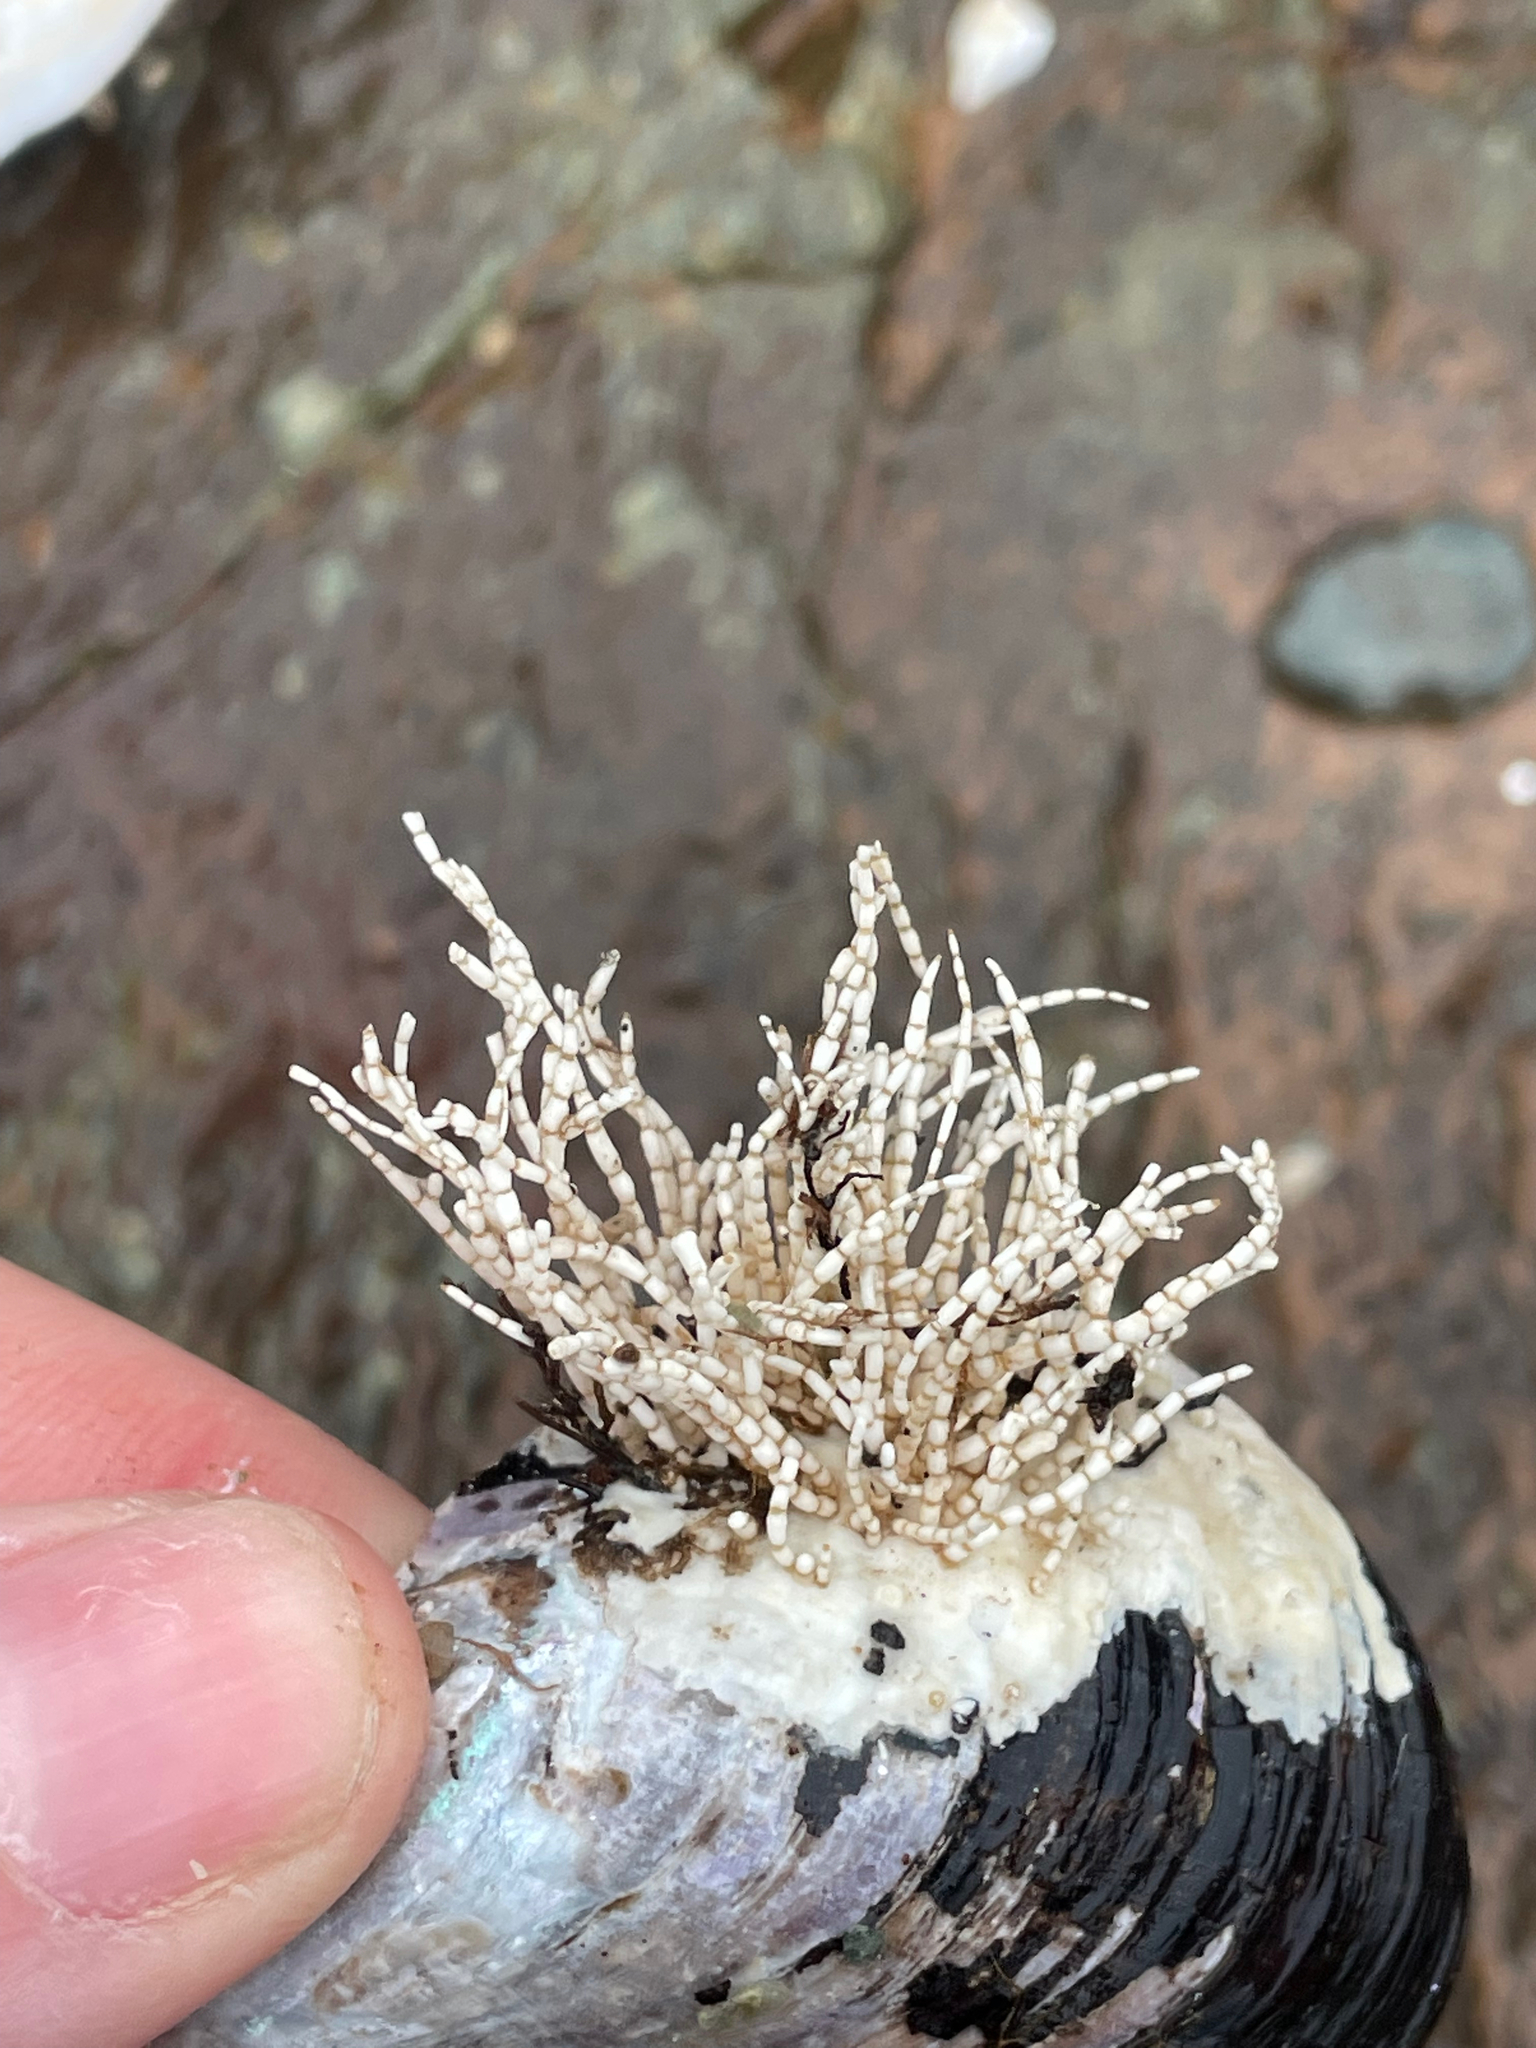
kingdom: Plantae
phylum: Rhodophyta
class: Florideophyceae
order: Corallinales
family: Corallinaceae
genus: Corallina
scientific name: Corallina officinalis
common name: Coral weed
